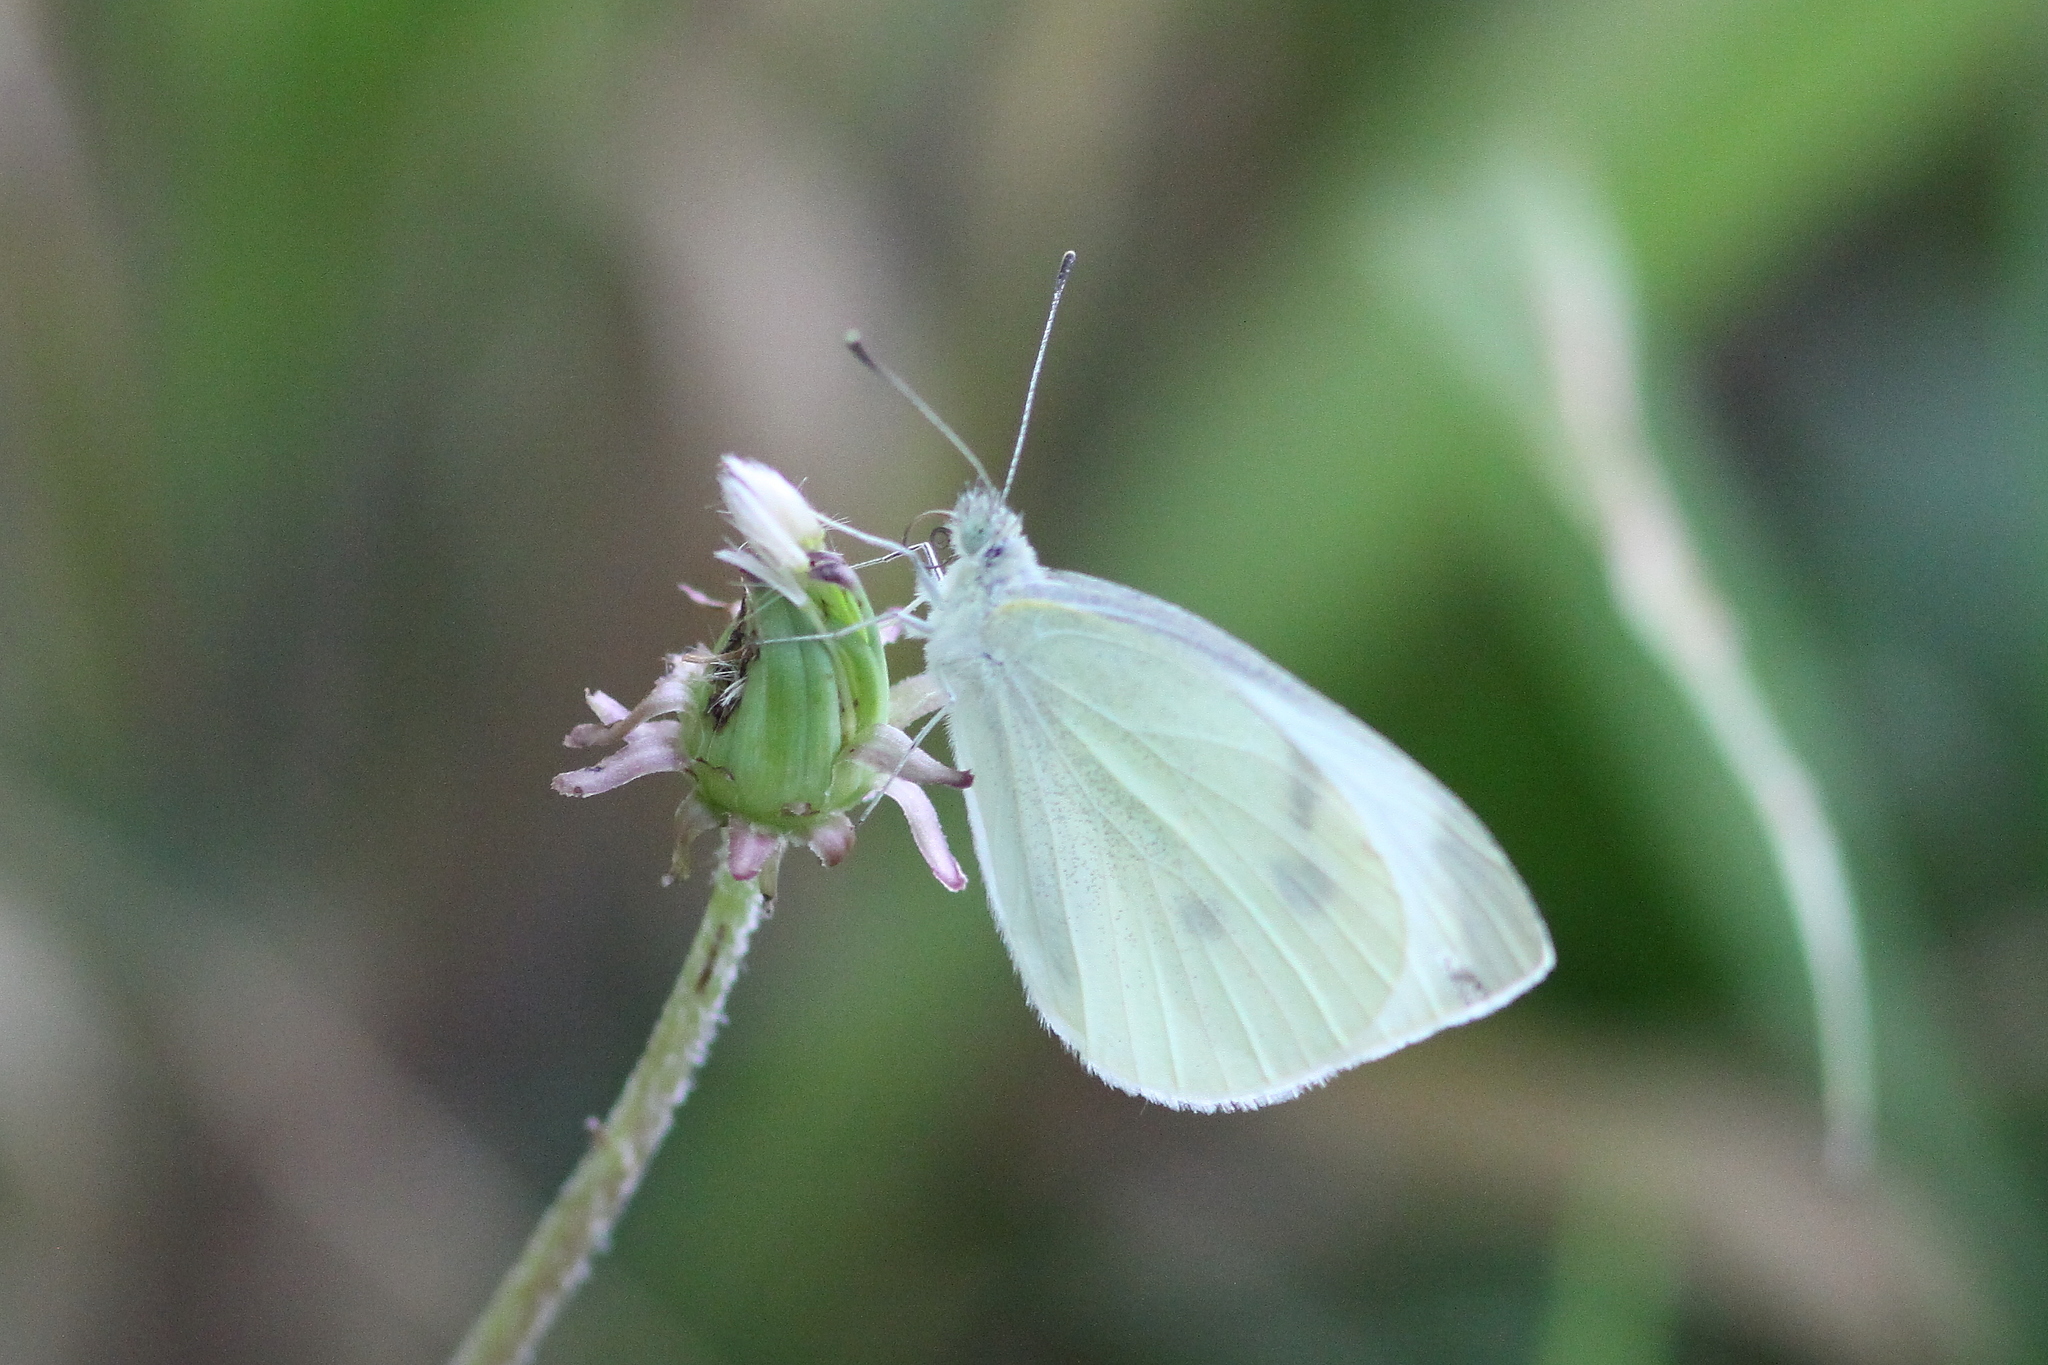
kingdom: Animalia
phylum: Arthropoda
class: Insecta
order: Lepidoptera
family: Pieridae
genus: Pieris
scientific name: Pieris rapae
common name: Small white
